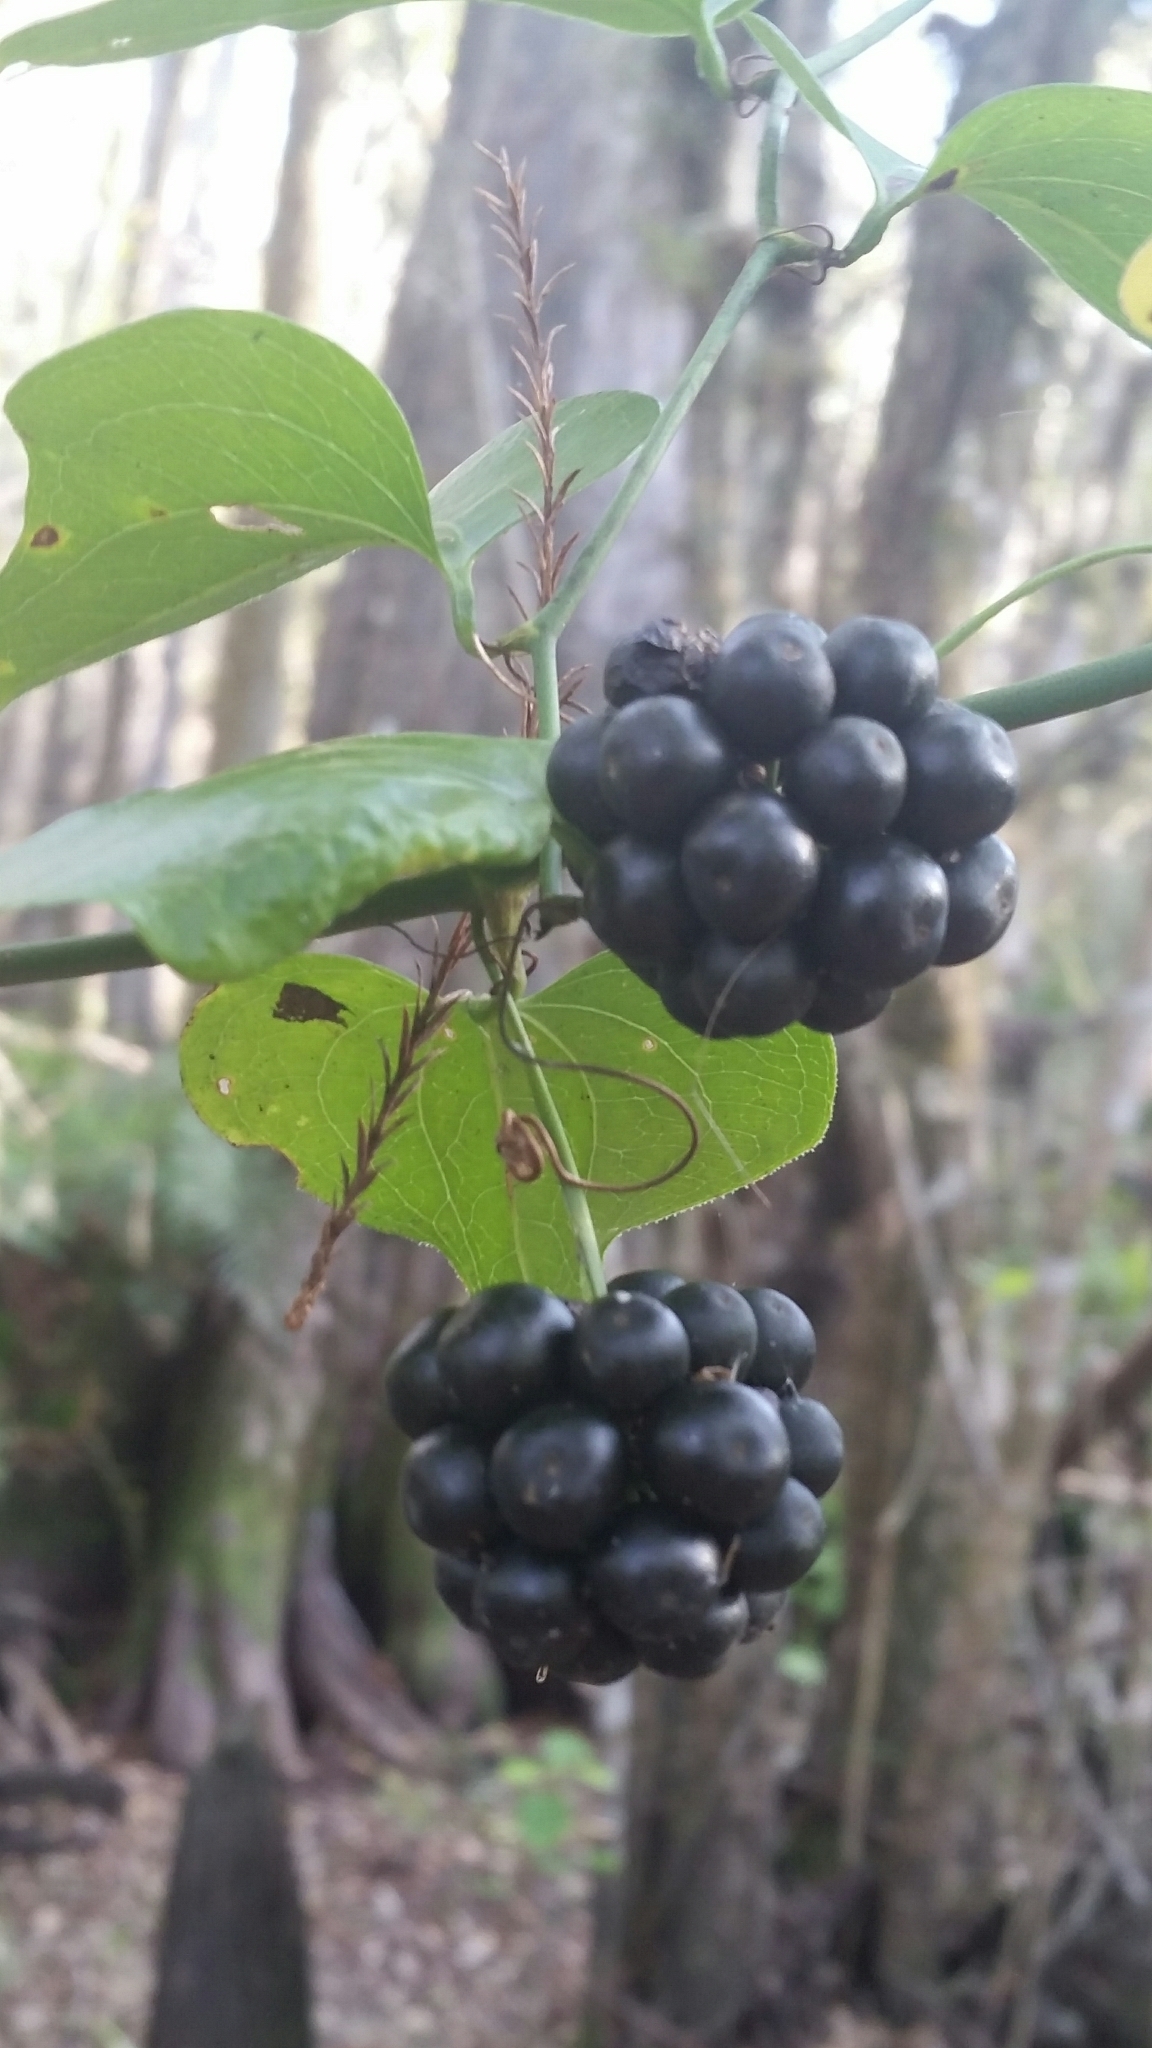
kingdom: Plantae
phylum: Tracheophyta
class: Liliopsida
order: Liliales
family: Smilacaceae
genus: Smilax
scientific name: Smilax tamnoides
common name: Hellfetter
